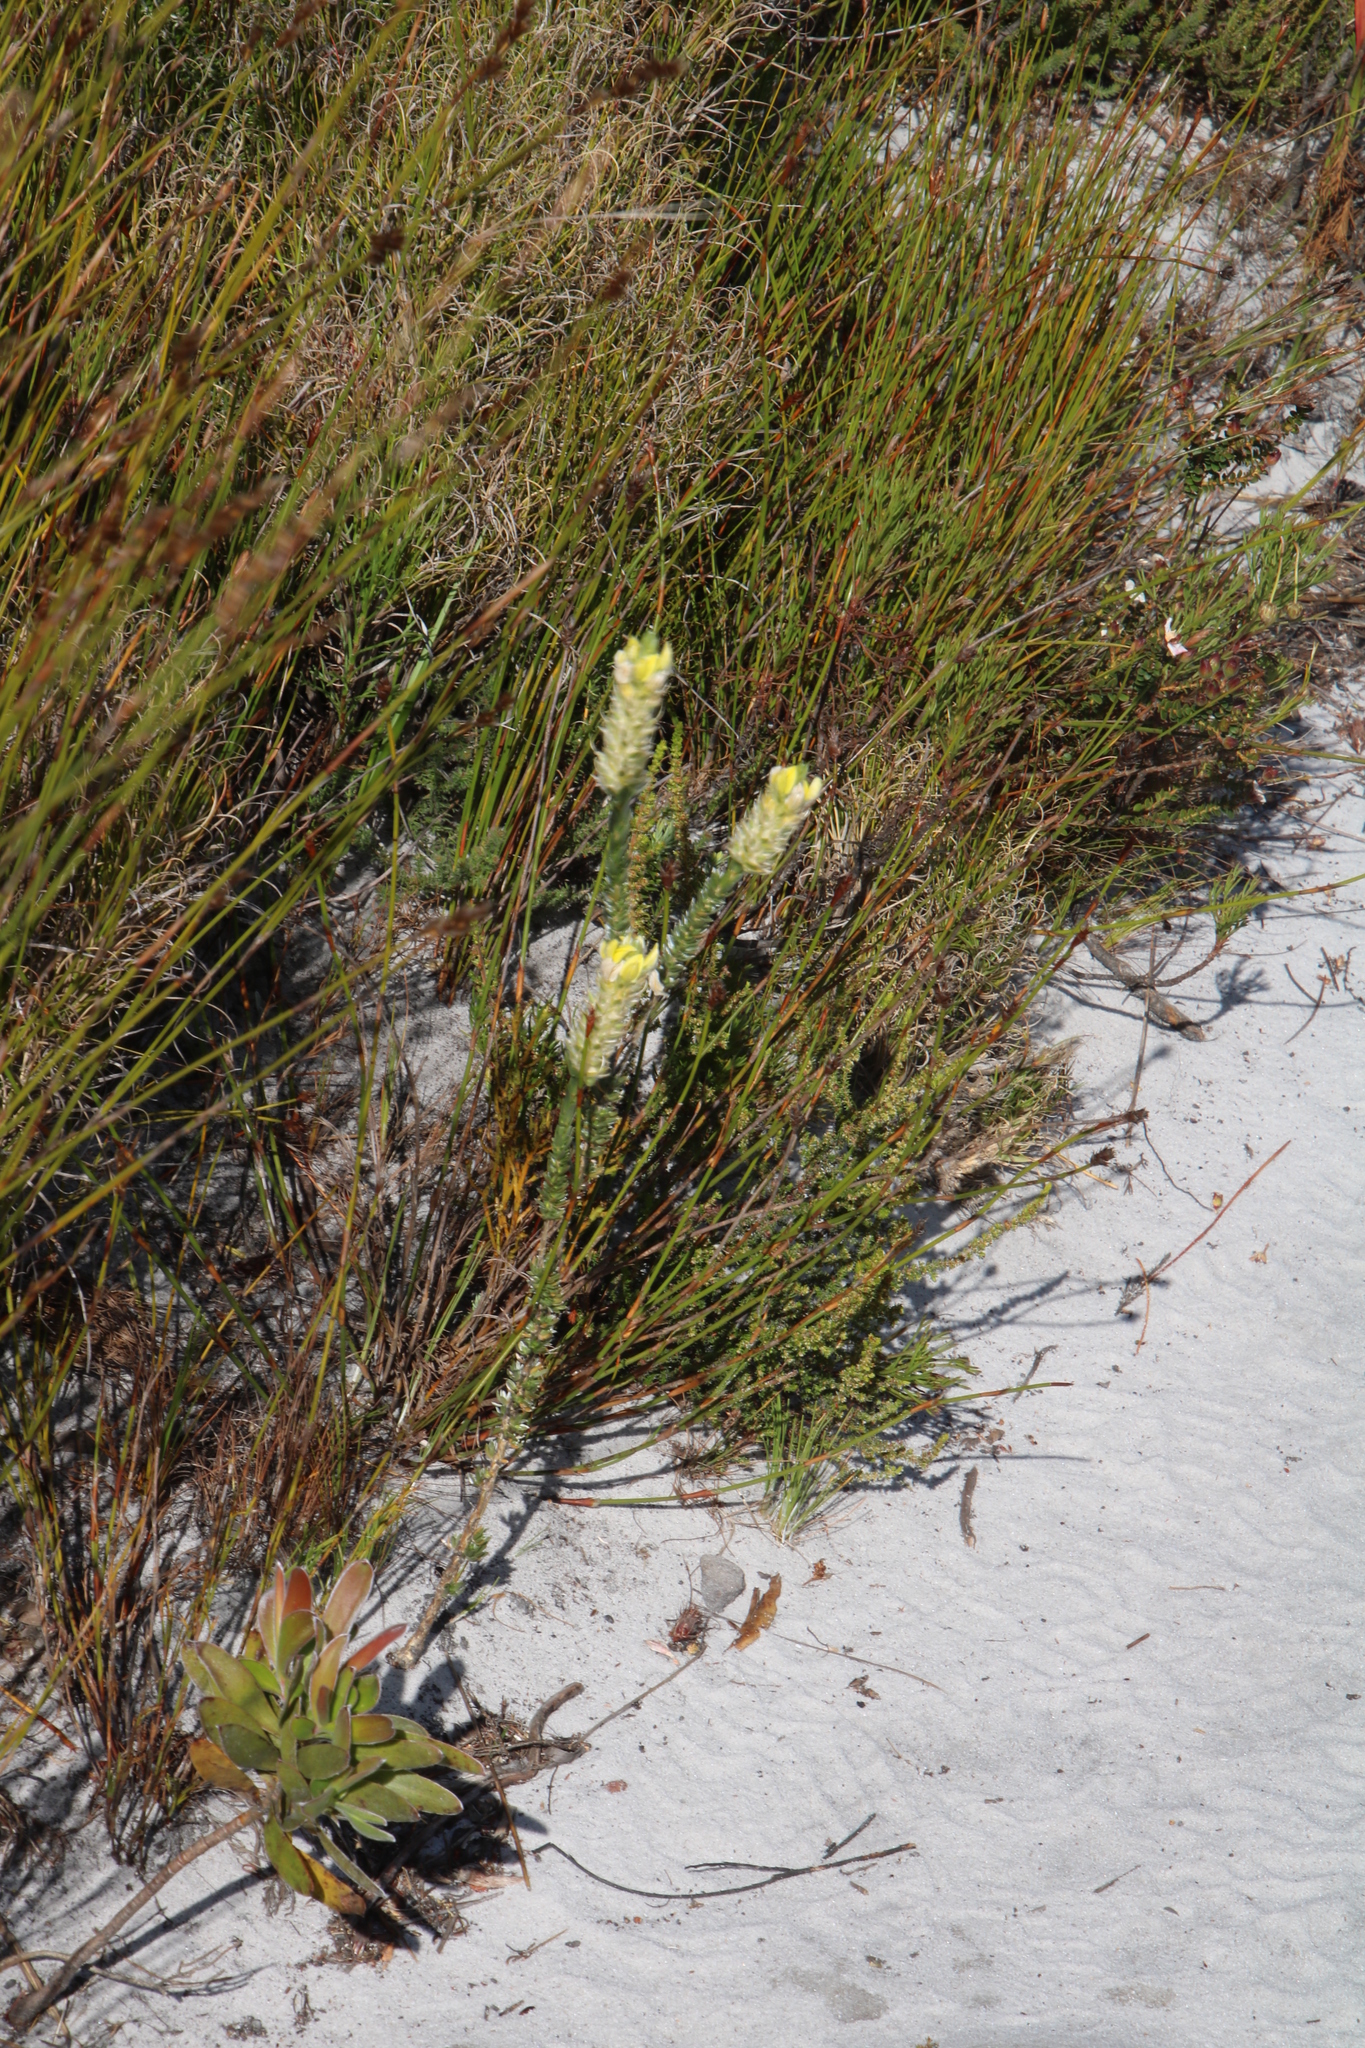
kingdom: Plantae
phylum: Tracheophyta
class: Magnoliopsida
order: Fabales
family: Fabaceae
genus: Aspalathus
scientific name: Aspalathus sericea
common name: Silky pea
